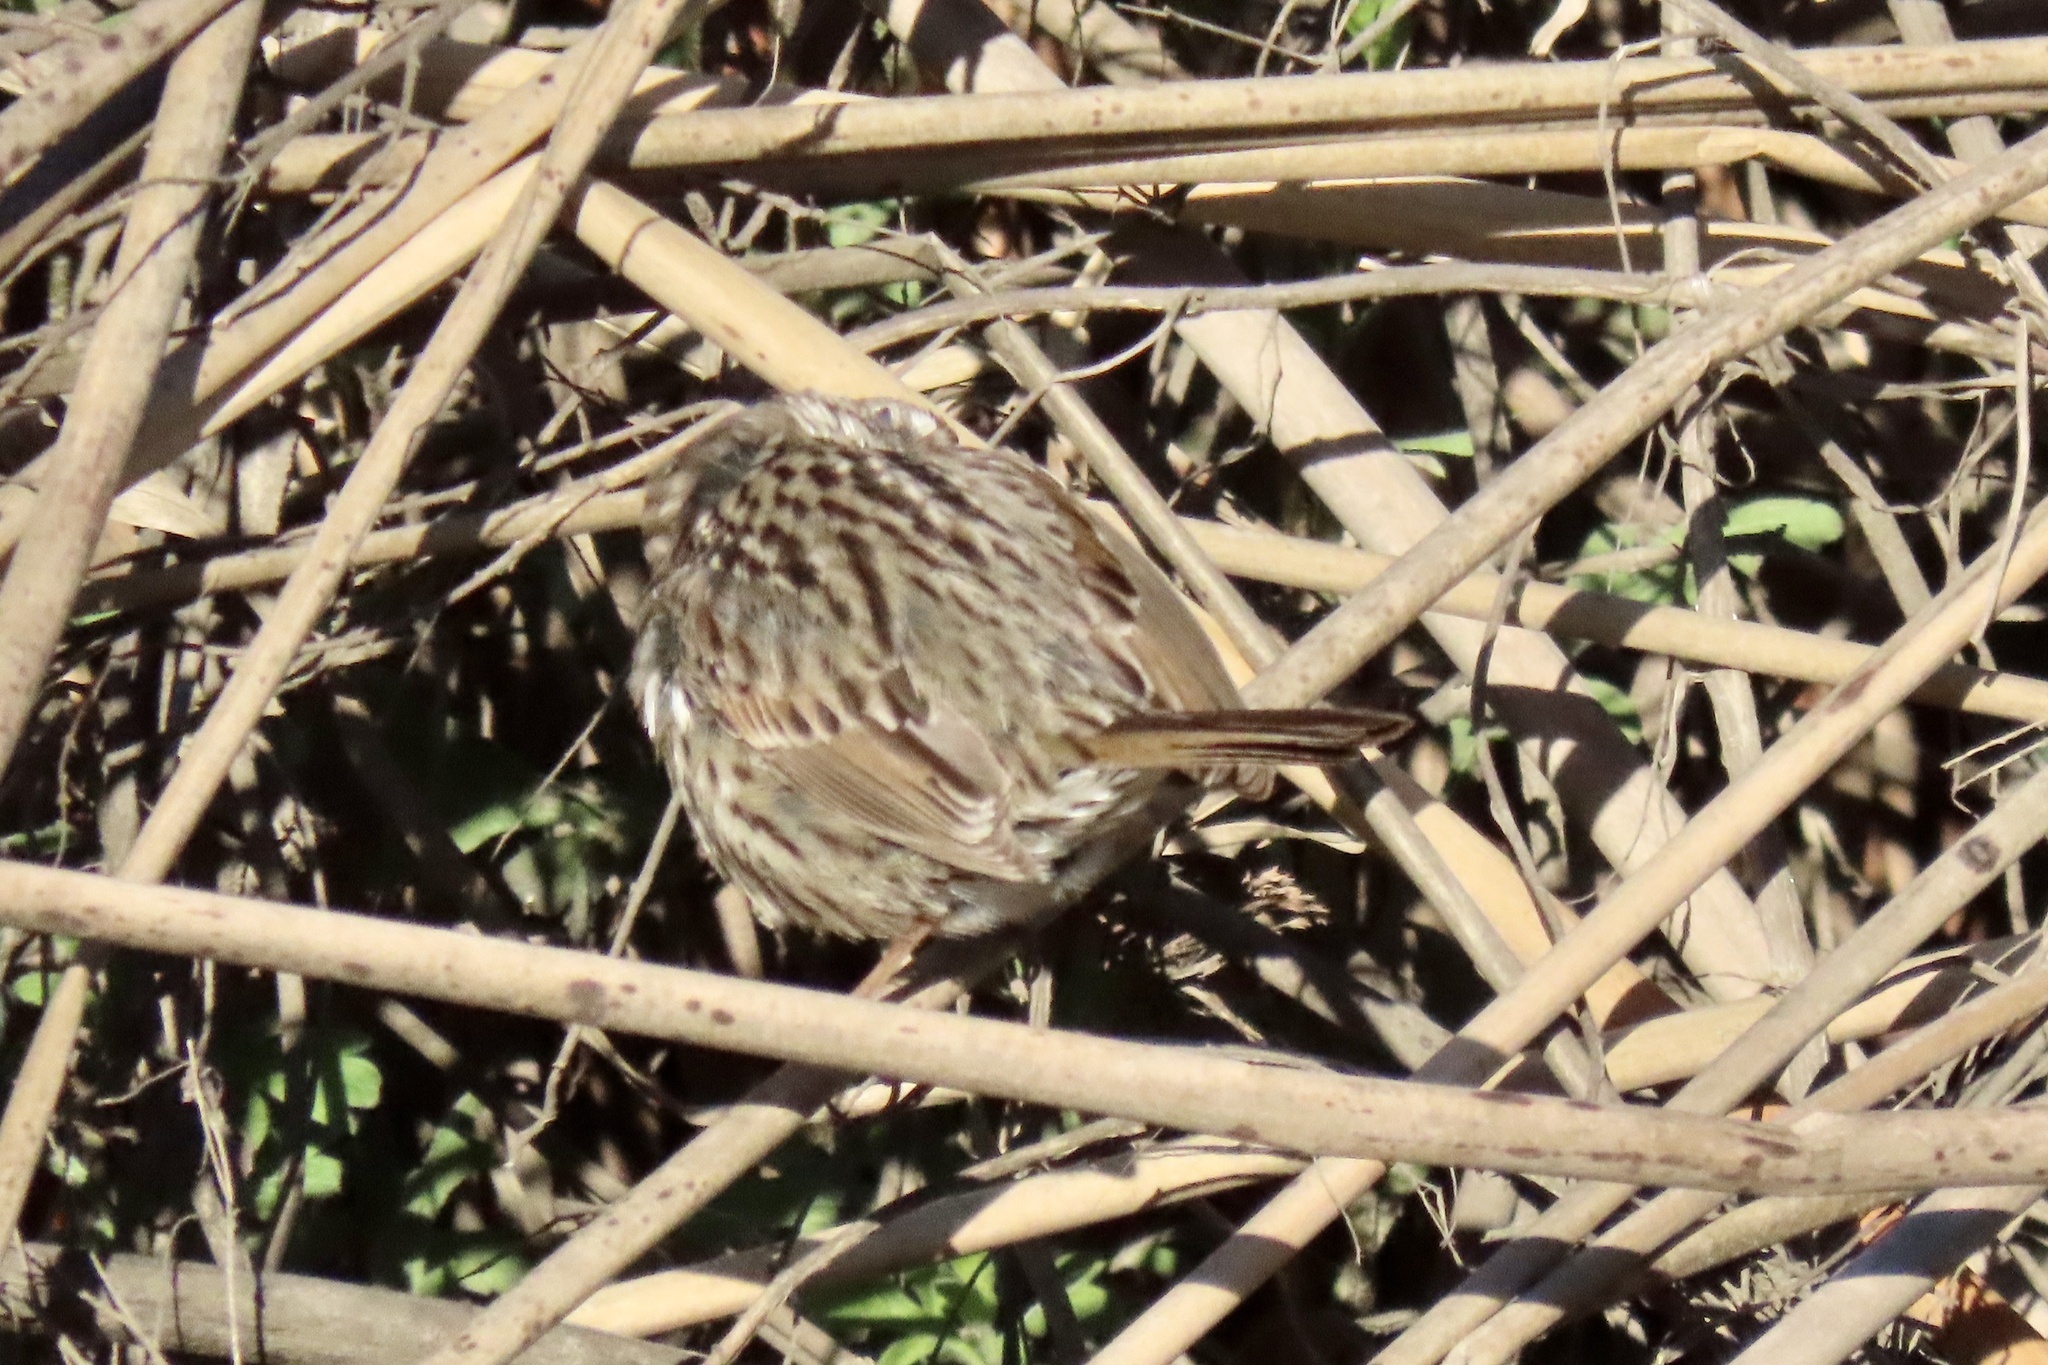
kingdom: Animalia
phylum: Chordata
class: Aves
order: Passeriformes
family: Passerellidae
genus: Melospiza
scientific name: Melospiza melodia
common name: Song sparrow
